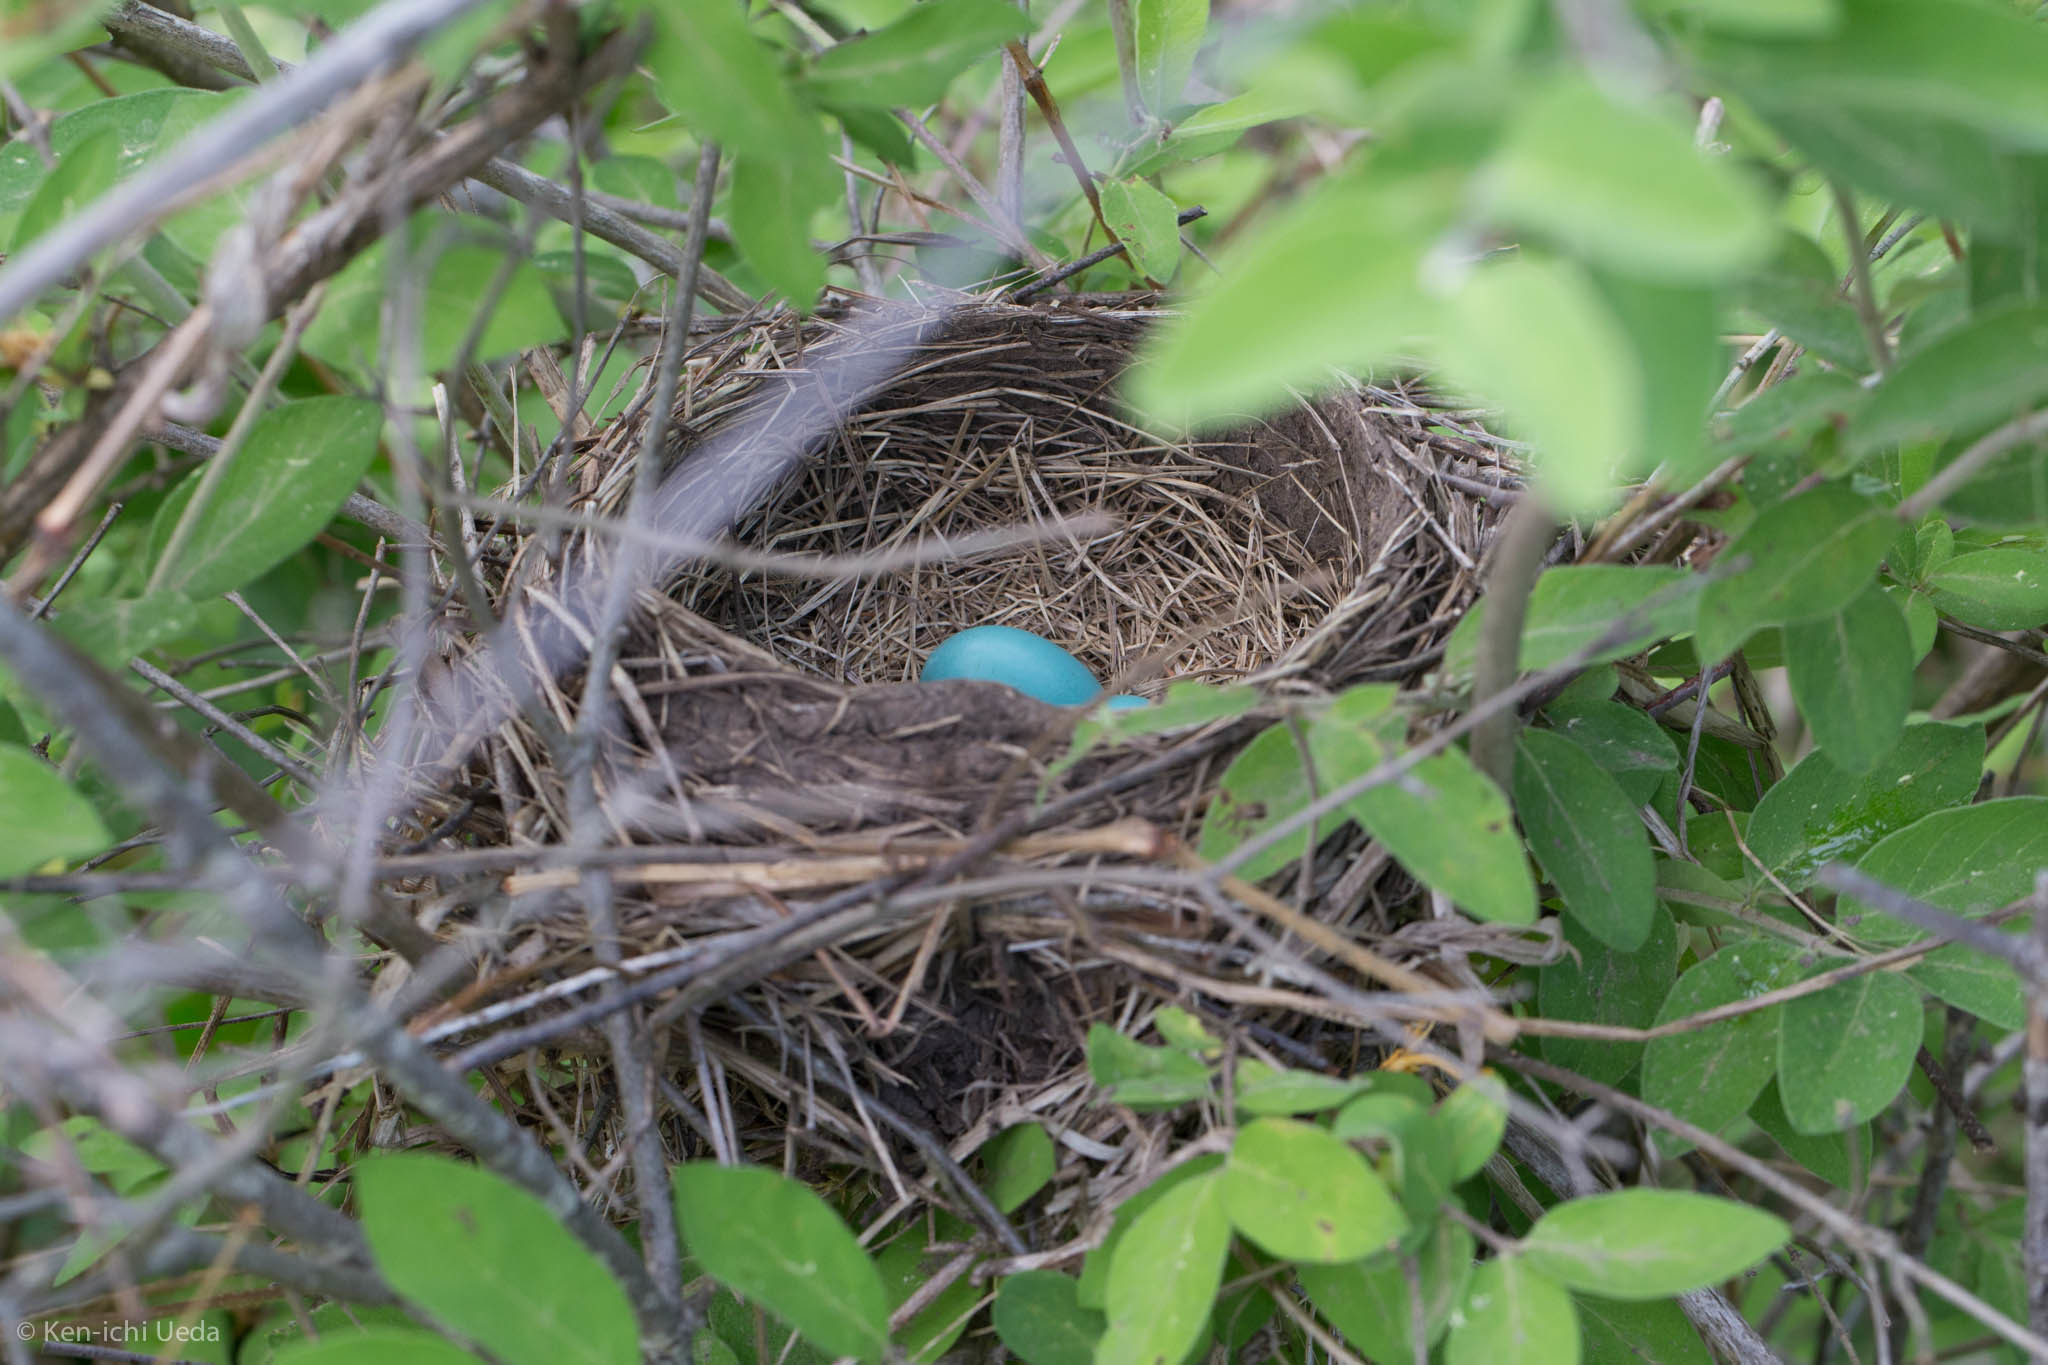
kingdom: Animalia
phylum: Chordata
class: Aves
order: Passeriformes
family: Turdidae
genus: Turdus
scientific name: Turdus migratorius
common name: American robin
